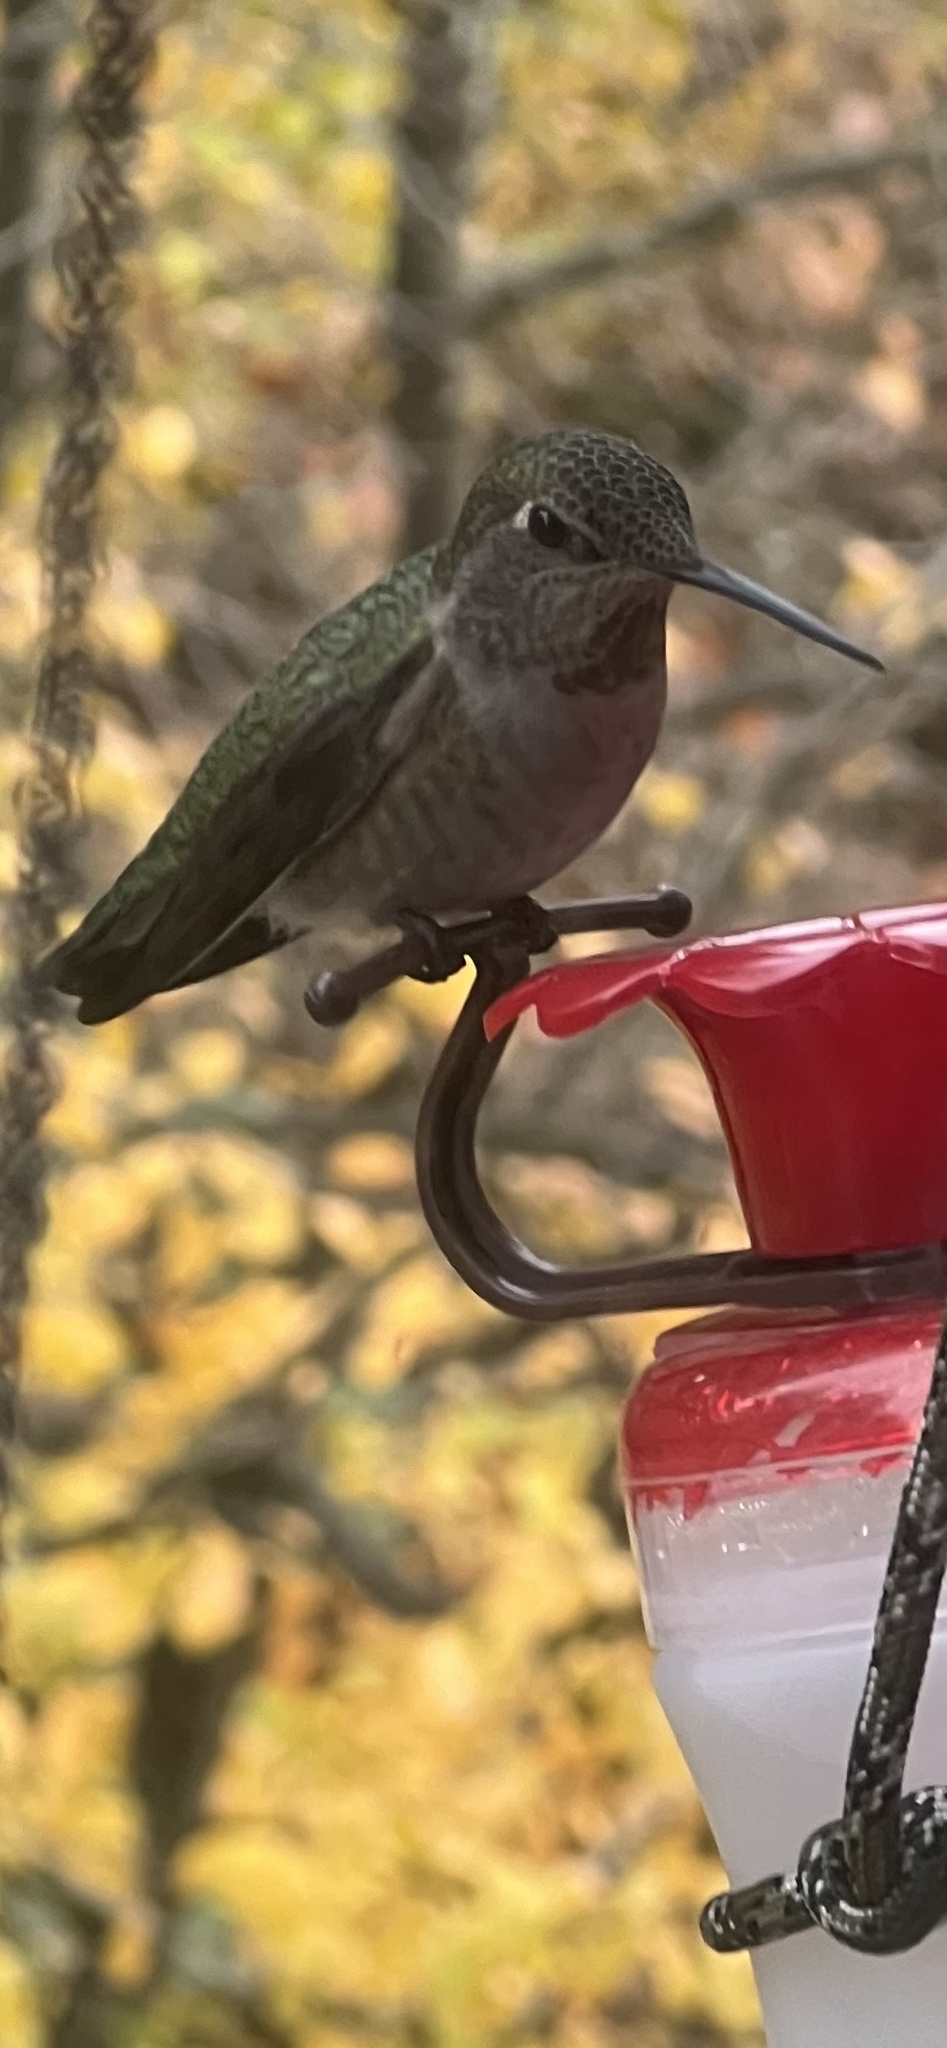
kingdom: Animalia
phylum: Chordata
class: Aves
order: Apodiformes
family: Trochilidae
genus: Calypte
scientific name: Calypte anna
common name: Anna's hummingbird
